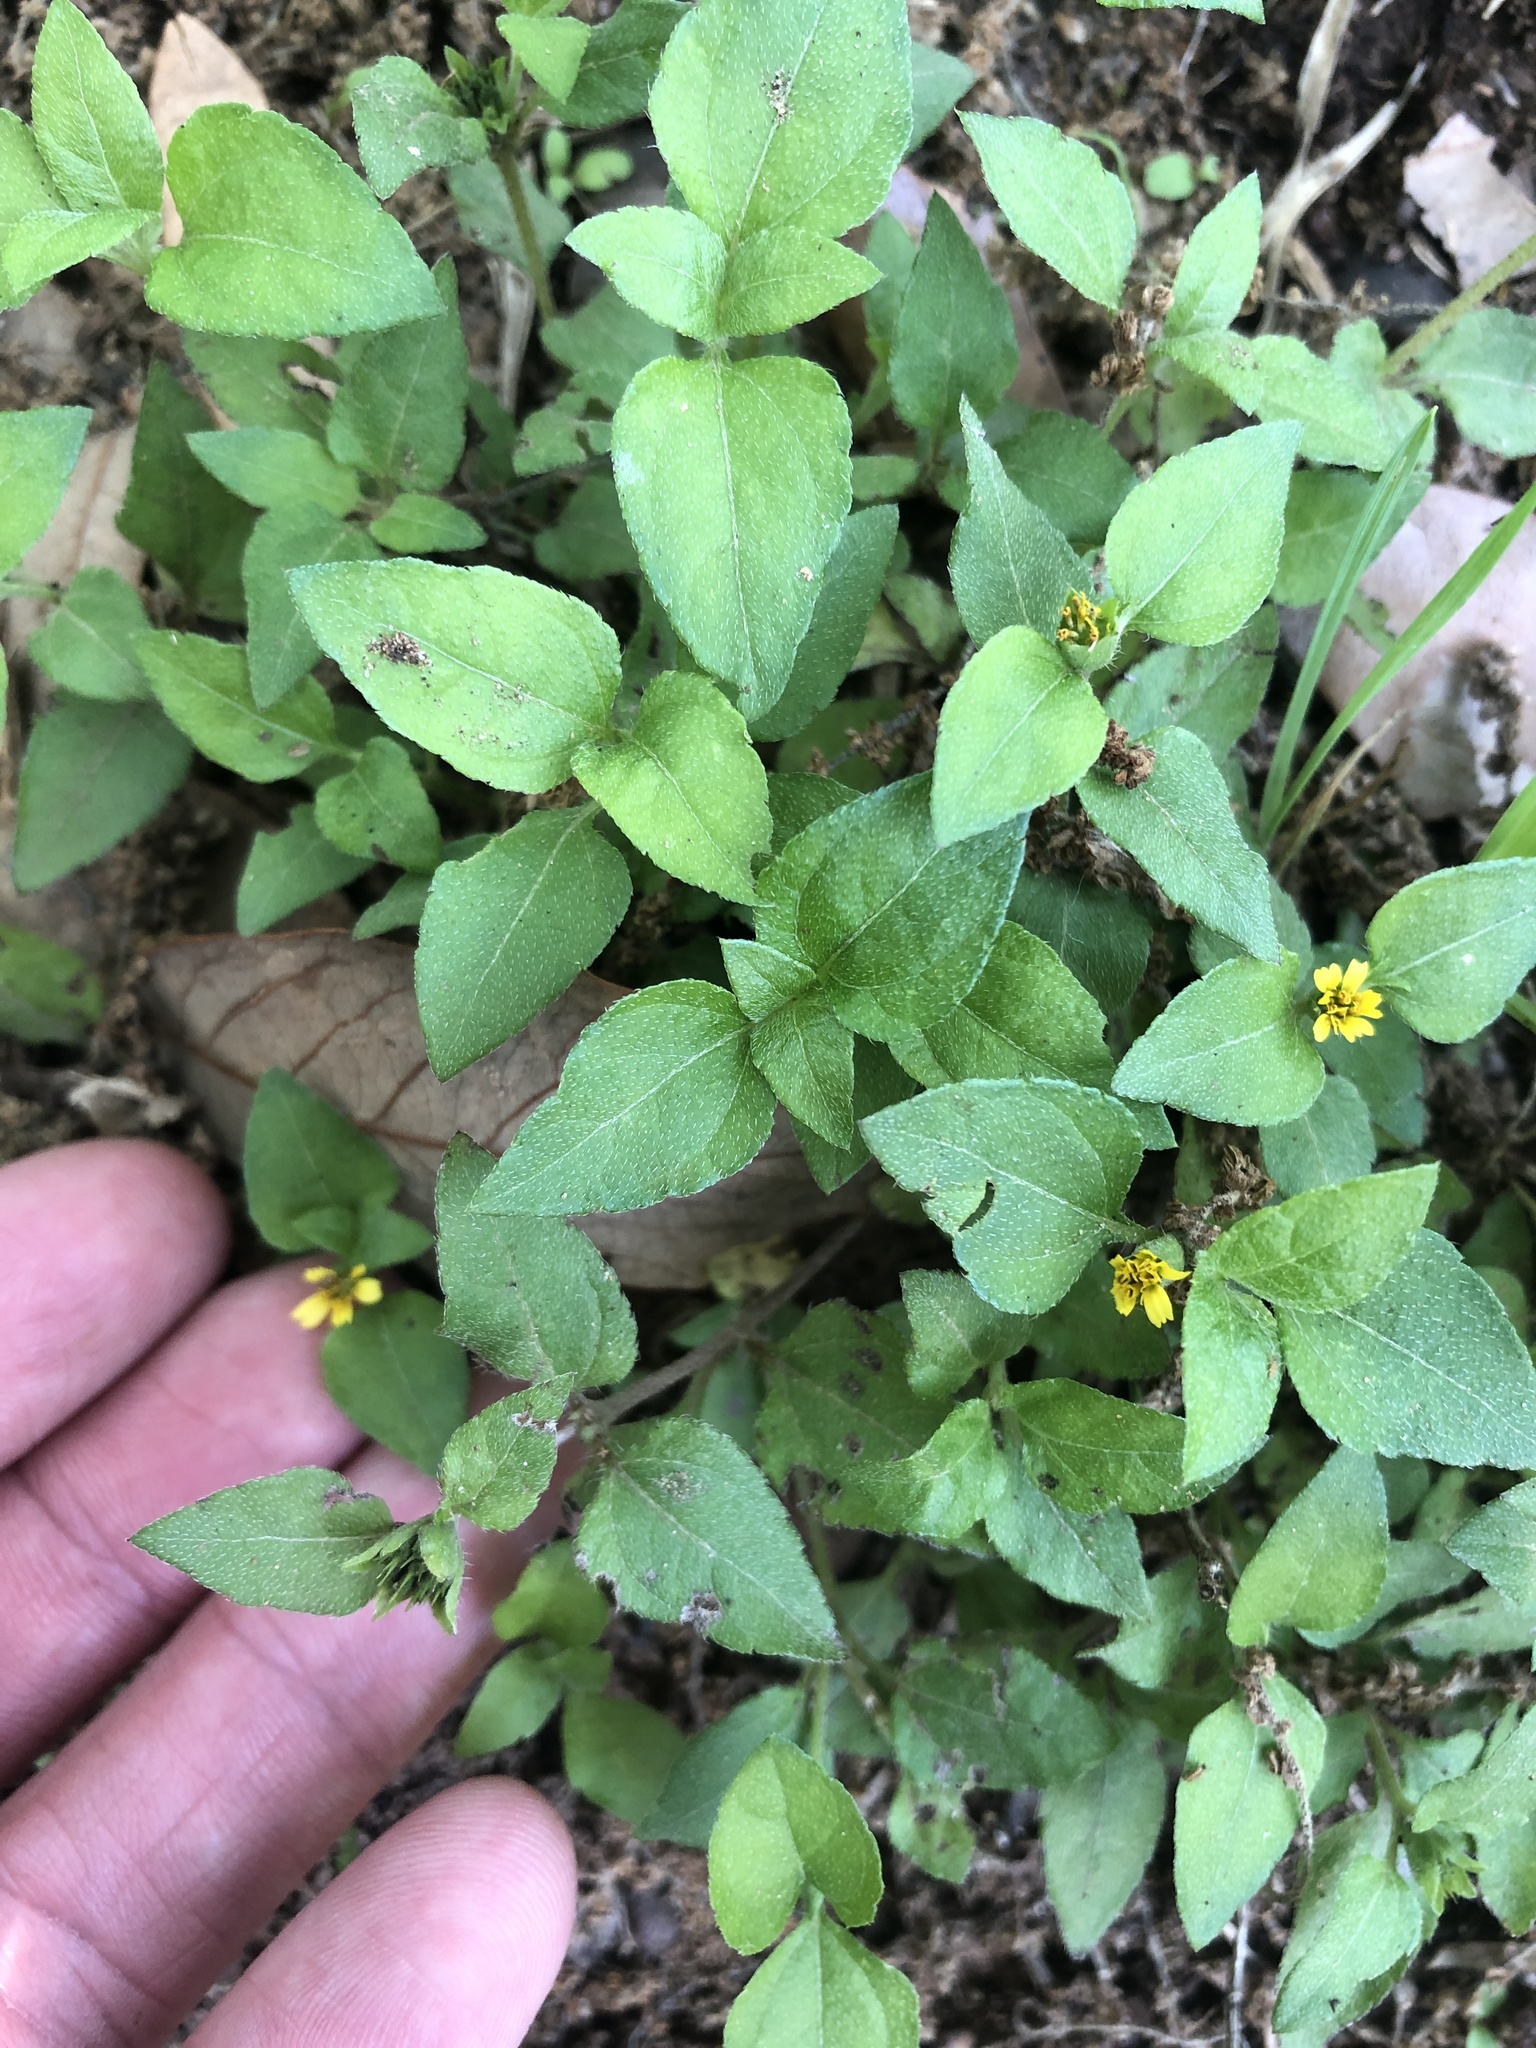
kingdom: Plantae
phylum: Tracheophyta
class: Magnoliopsida
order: Asterales
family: Asteraceae
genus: Calyptocarpus
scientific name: Calyptocarpus vialis
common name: Straggler daisy
